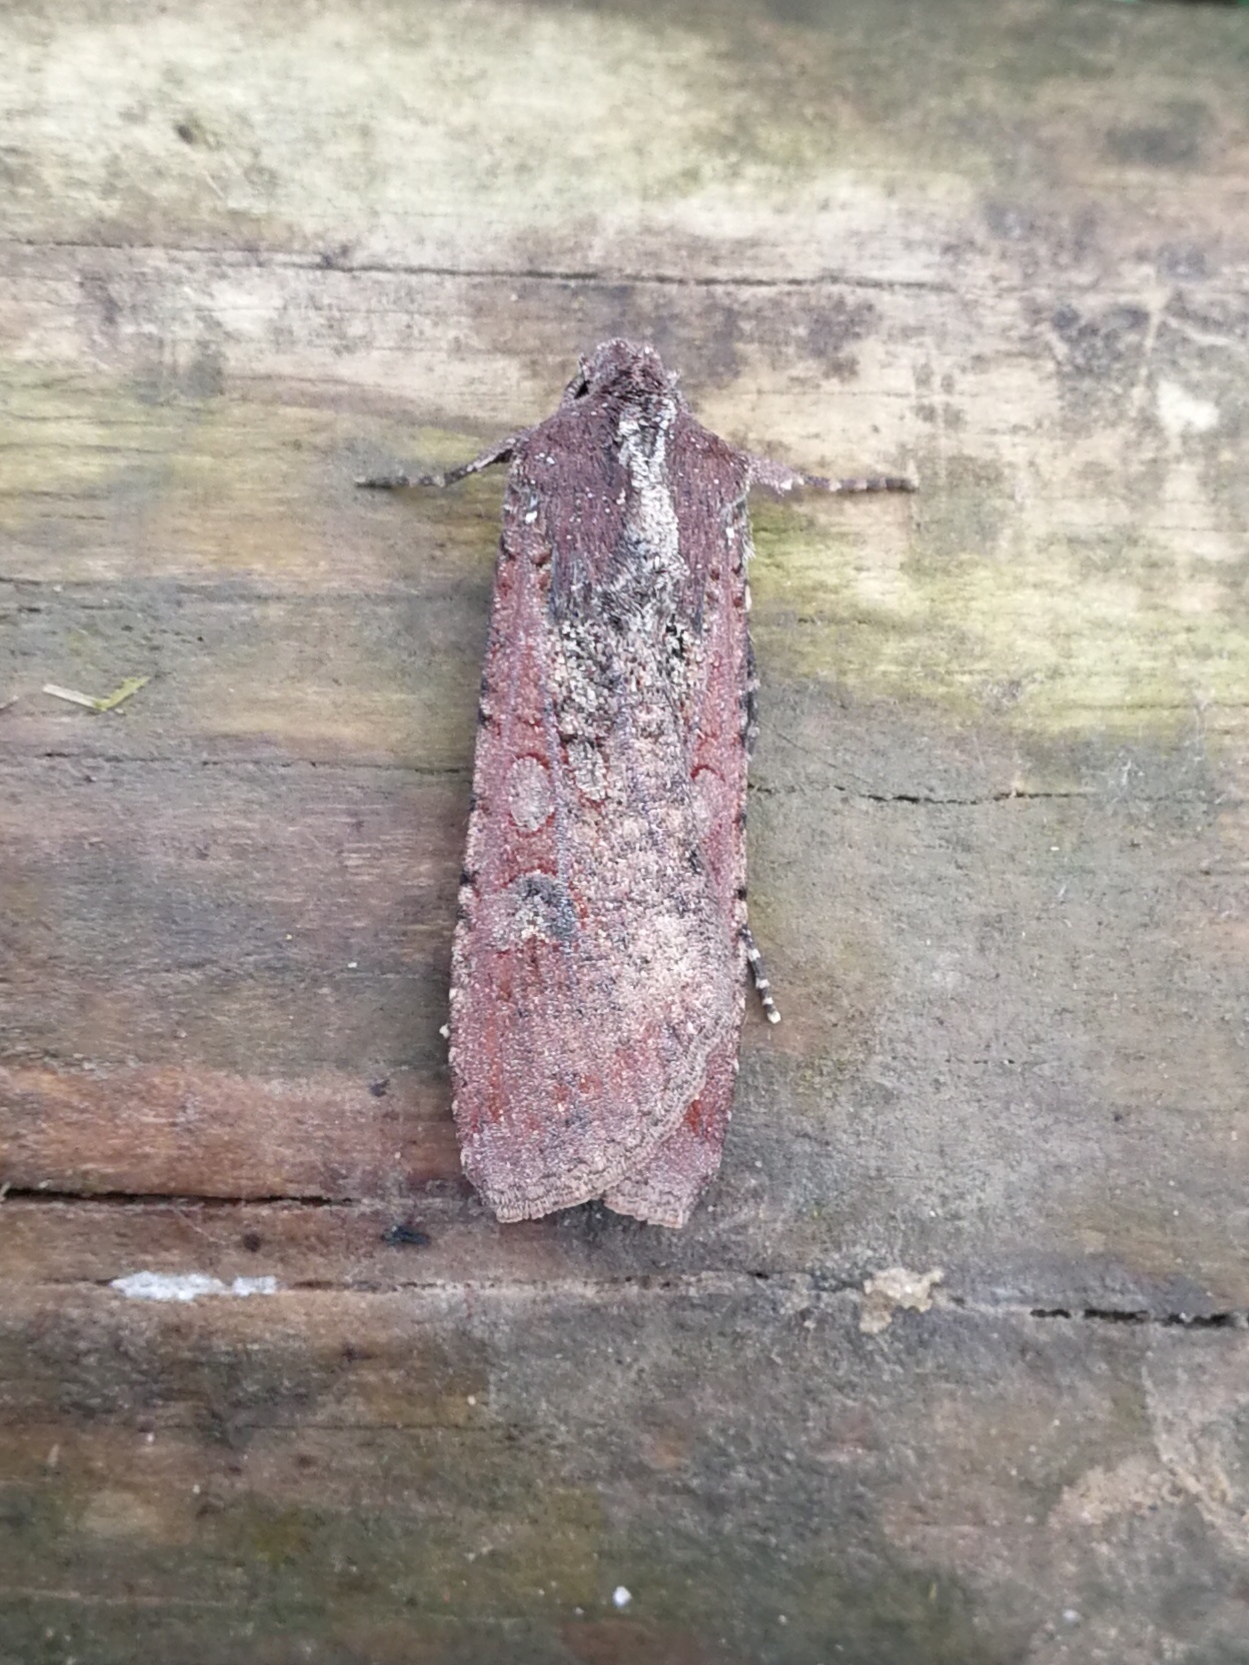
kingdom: Animalia
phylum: Arthropoda
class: Insecta
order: Lepidoptera
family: Noctuidae
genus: Peridroma
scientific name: Peridroma saucia
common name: Pearly underwing
